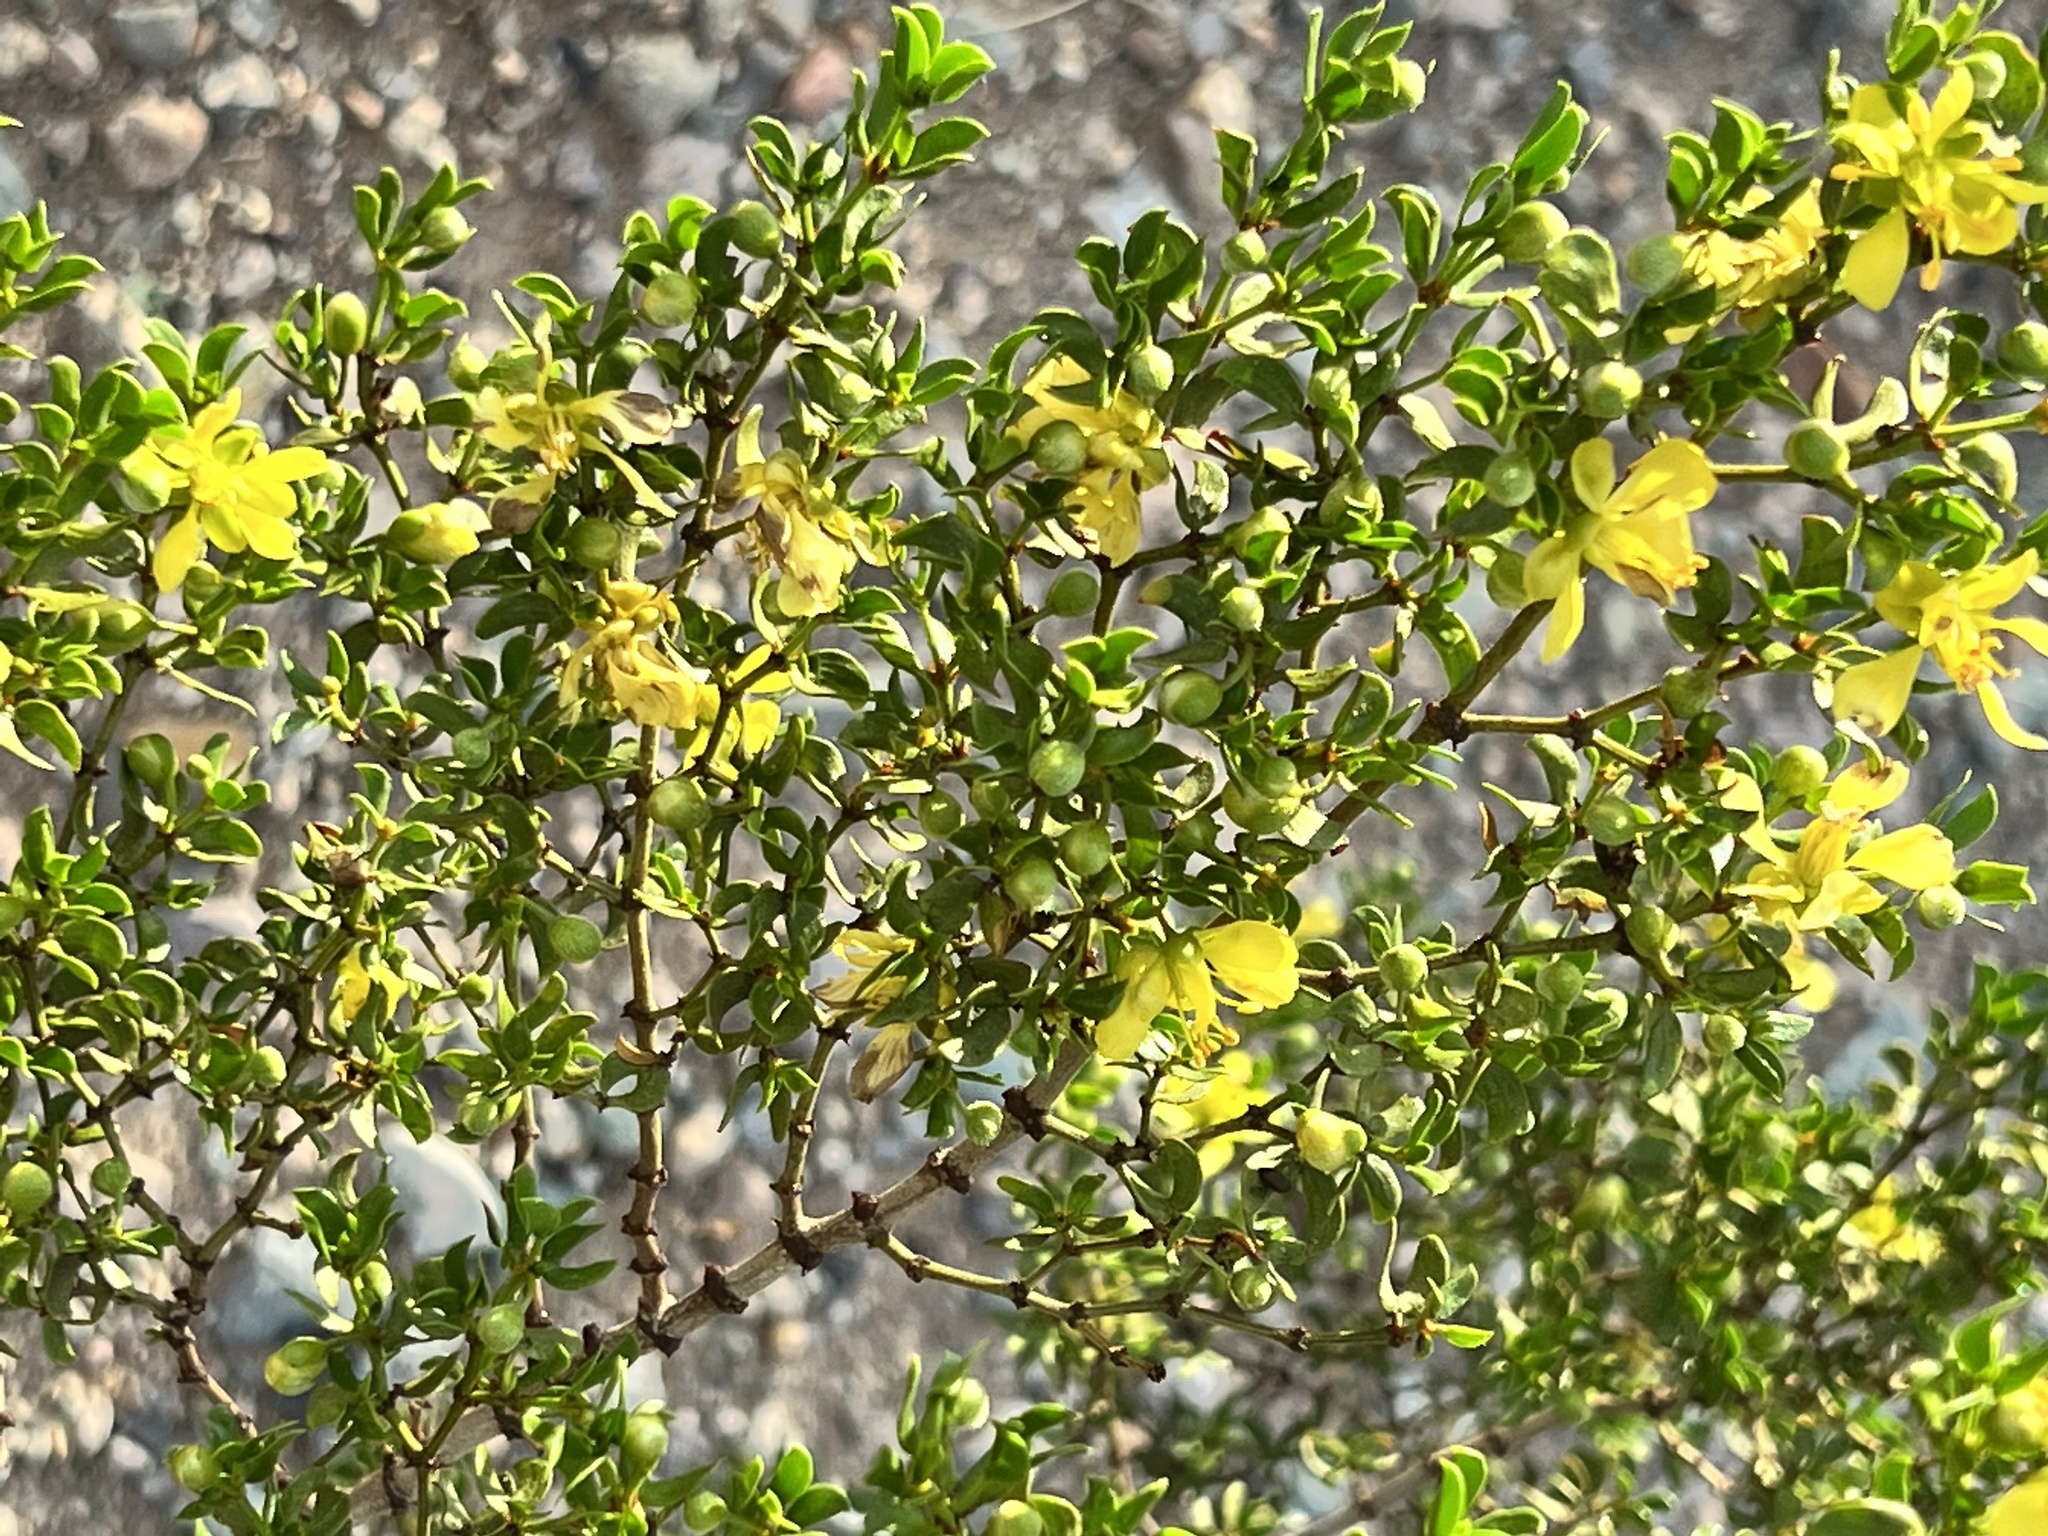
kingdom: Plantae
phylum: Tracheophyta
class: Magnoliopsida
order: Zygophyllales
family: Zygophyllaceae
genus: Larrea
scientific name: Larrea tridentata
